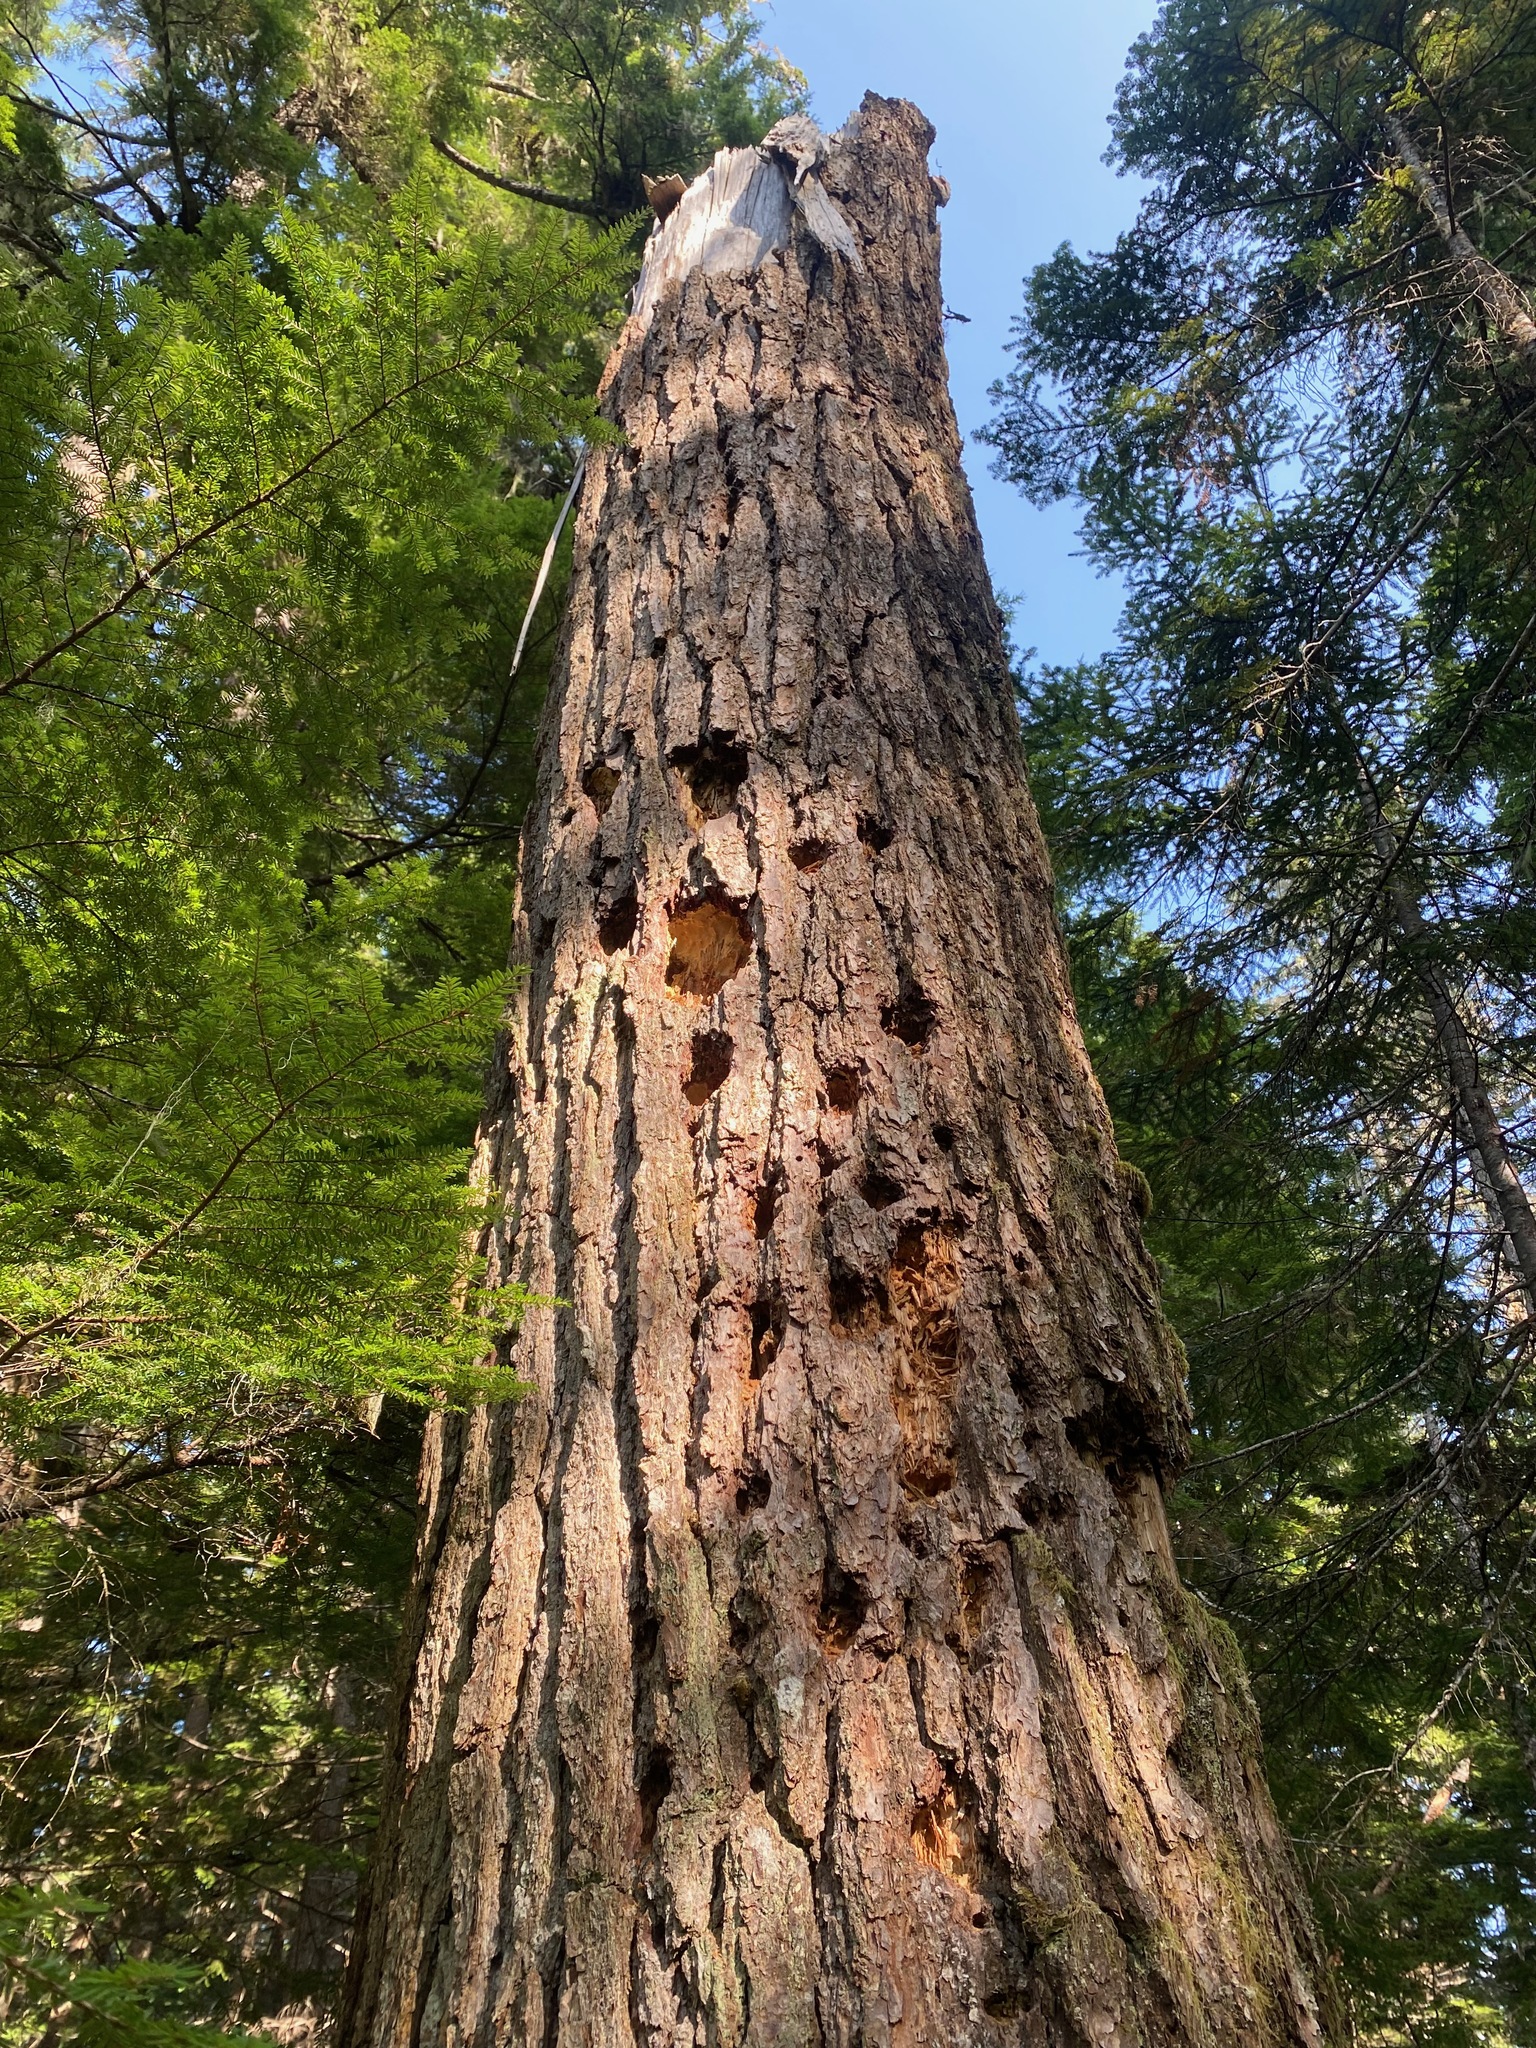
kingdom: Animalia
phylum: Chordata
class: Aves
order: Piciformes
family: Picidae
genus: Dryocopus
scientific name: Dryocopus pileatus
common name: Pileated woodpecker
